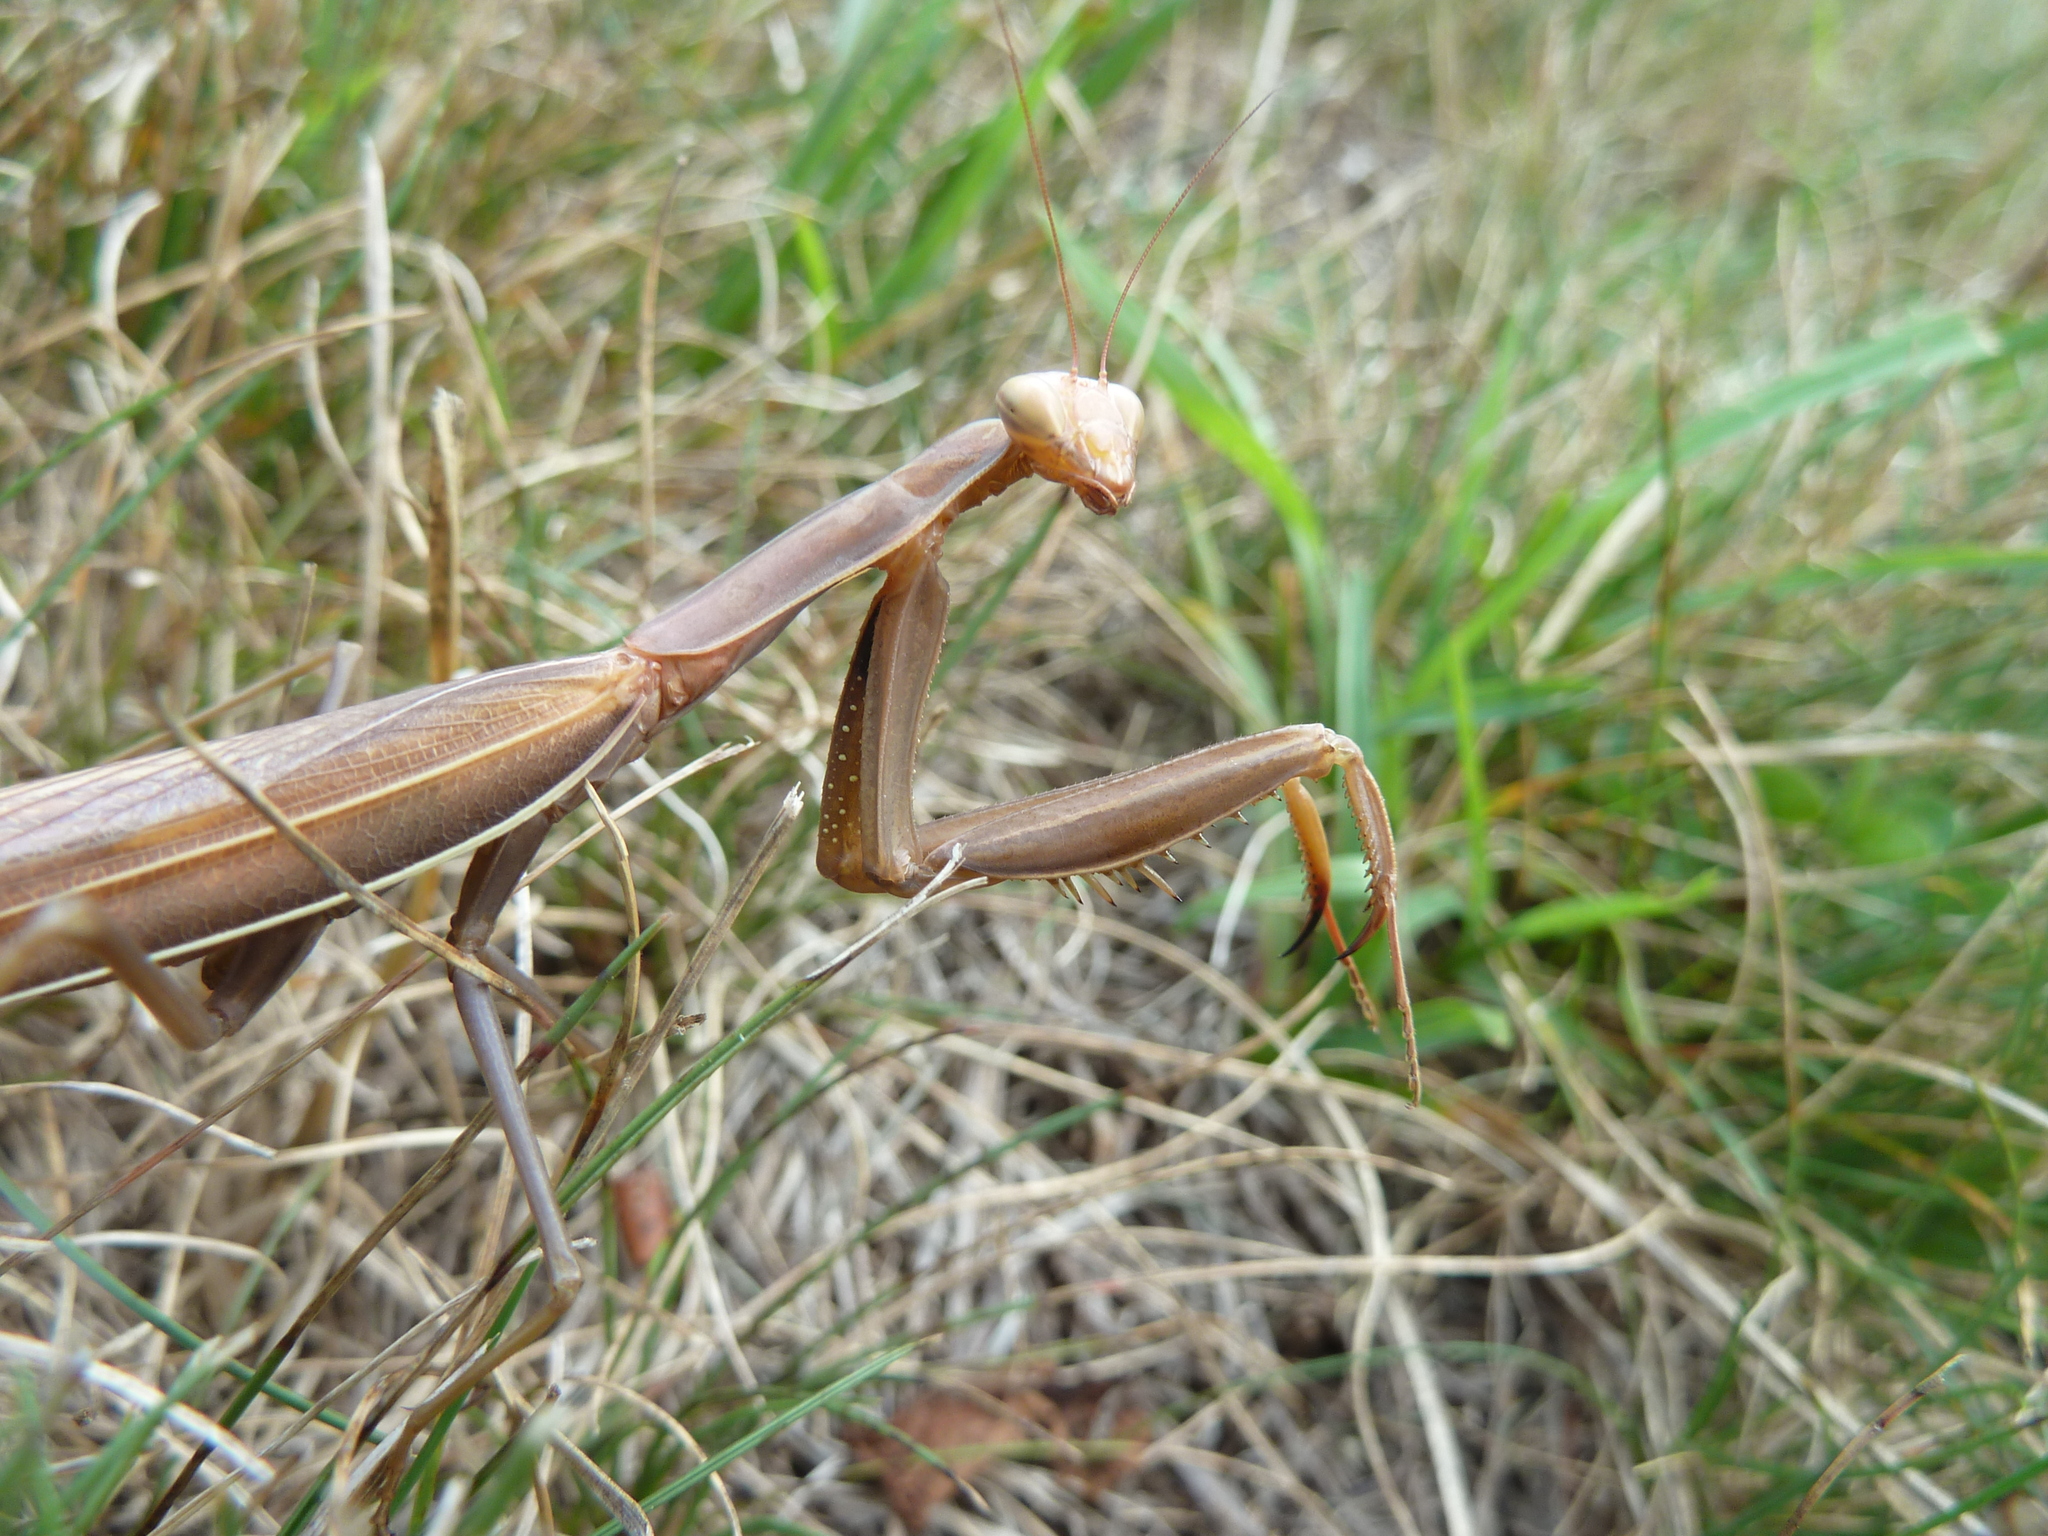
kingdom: Animalia
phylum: Arthropoda
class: Insecta
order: Mantodea
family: Mantidae
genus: Mantis
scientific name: Mantis religiosa
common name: Praying mantis
